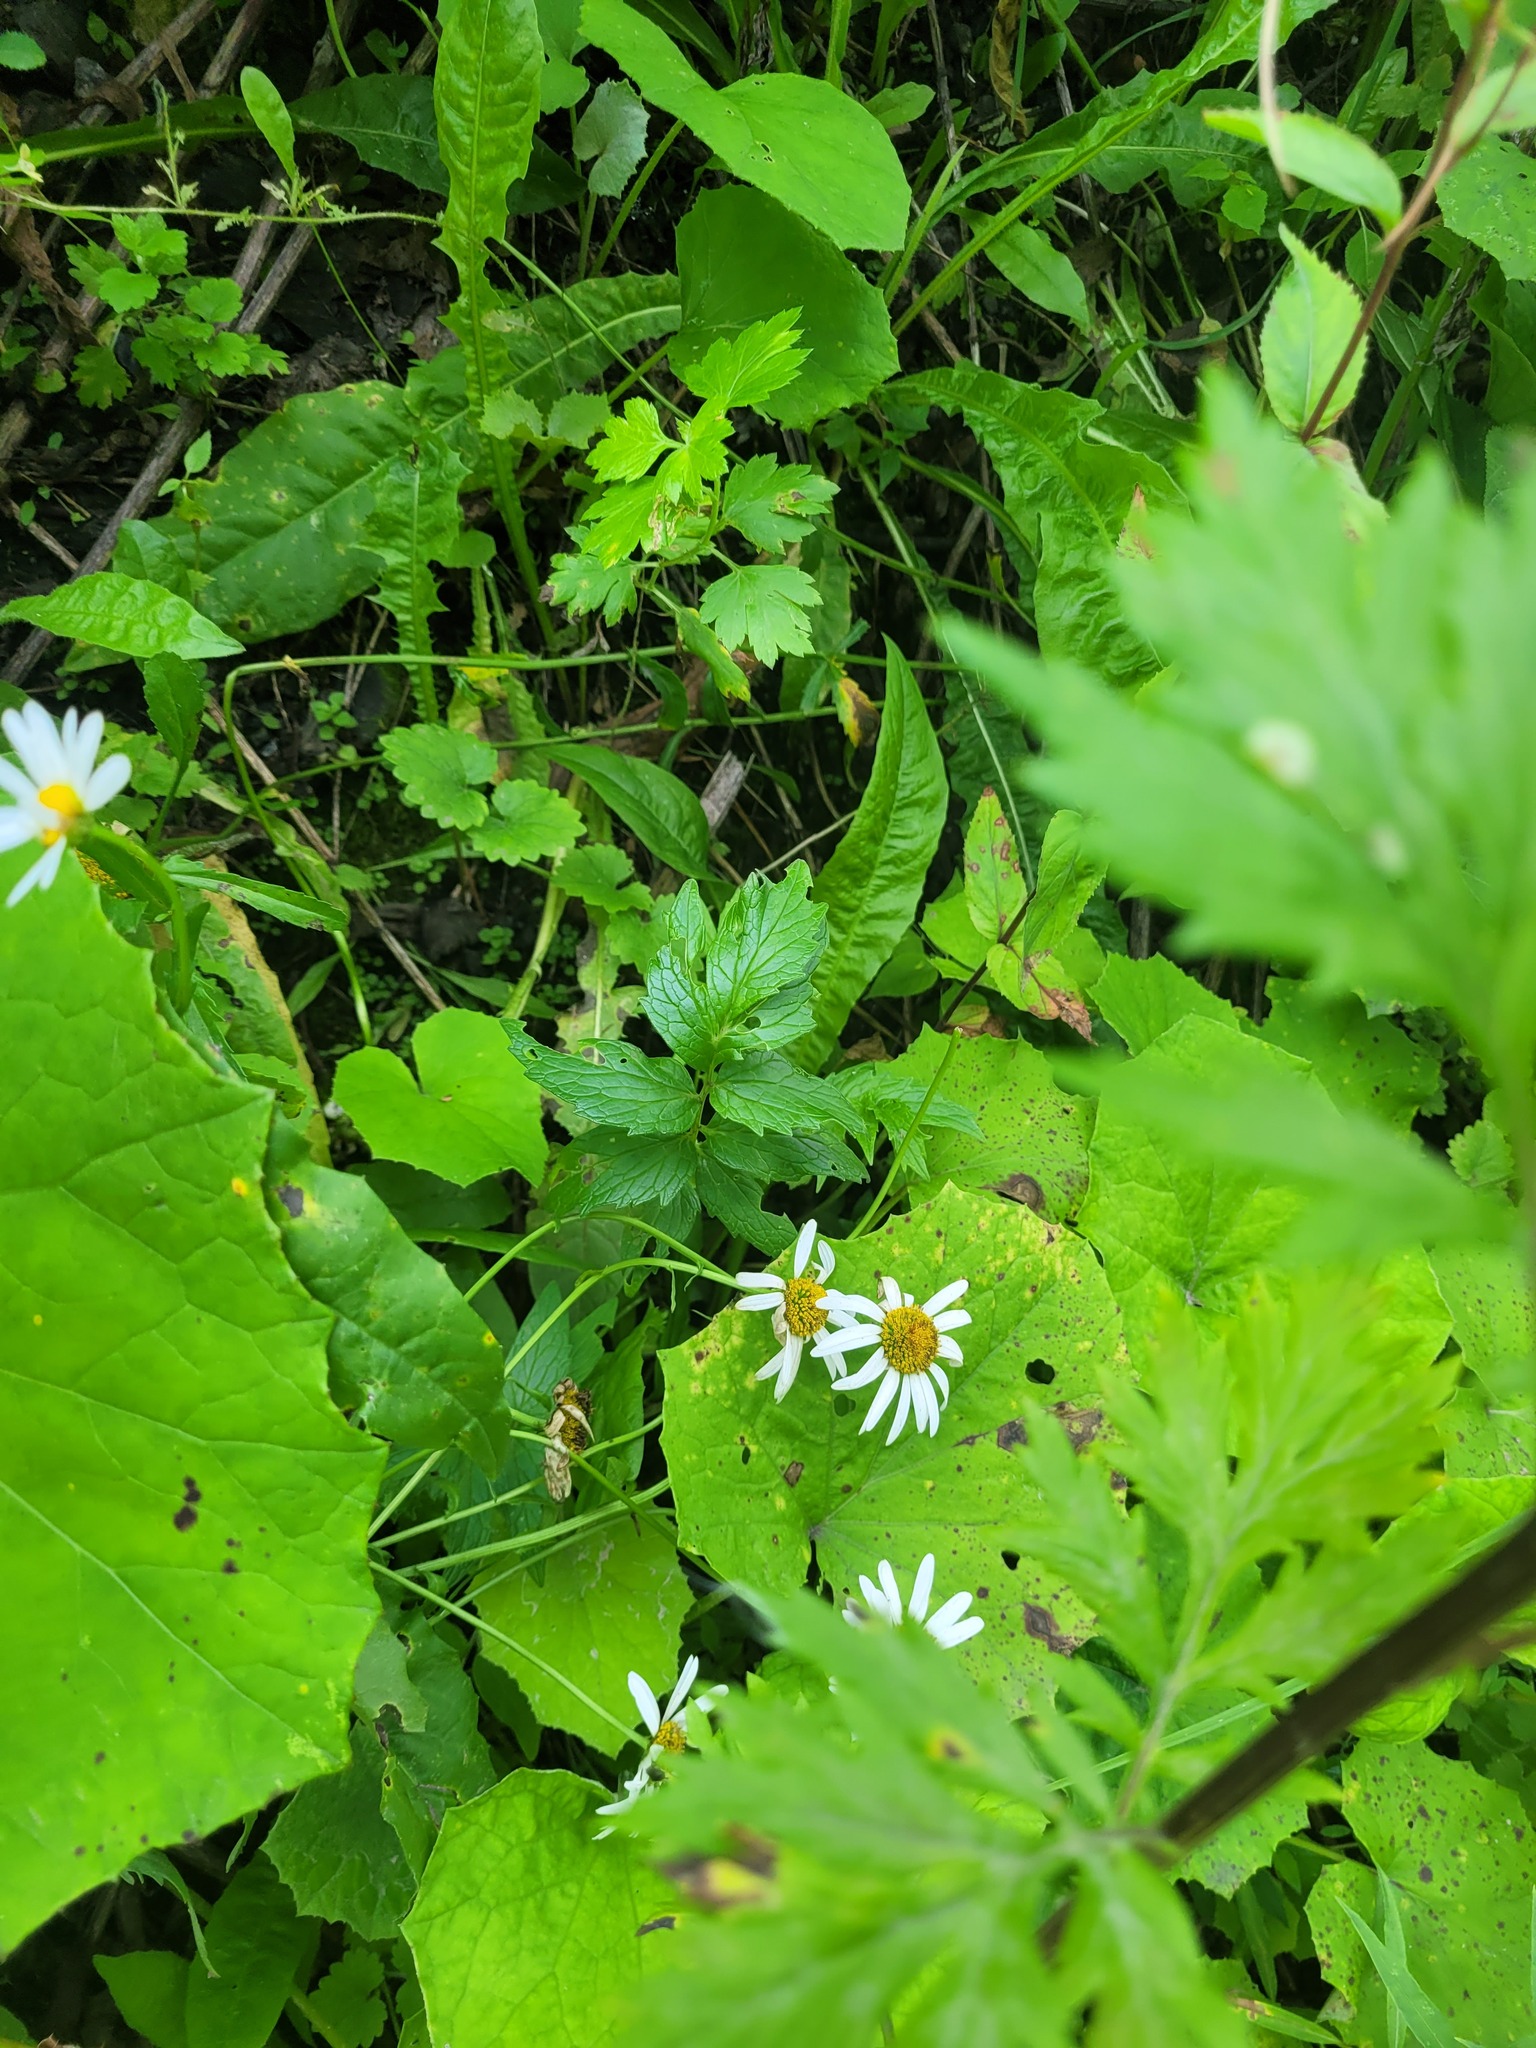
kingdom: Plantae
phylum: Tracheophyta
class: Magnoliopsida
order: Dipsacales
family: Caprifoliaceae
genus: Valeriana
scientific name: Valeriana officinalis
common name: Common valerian
